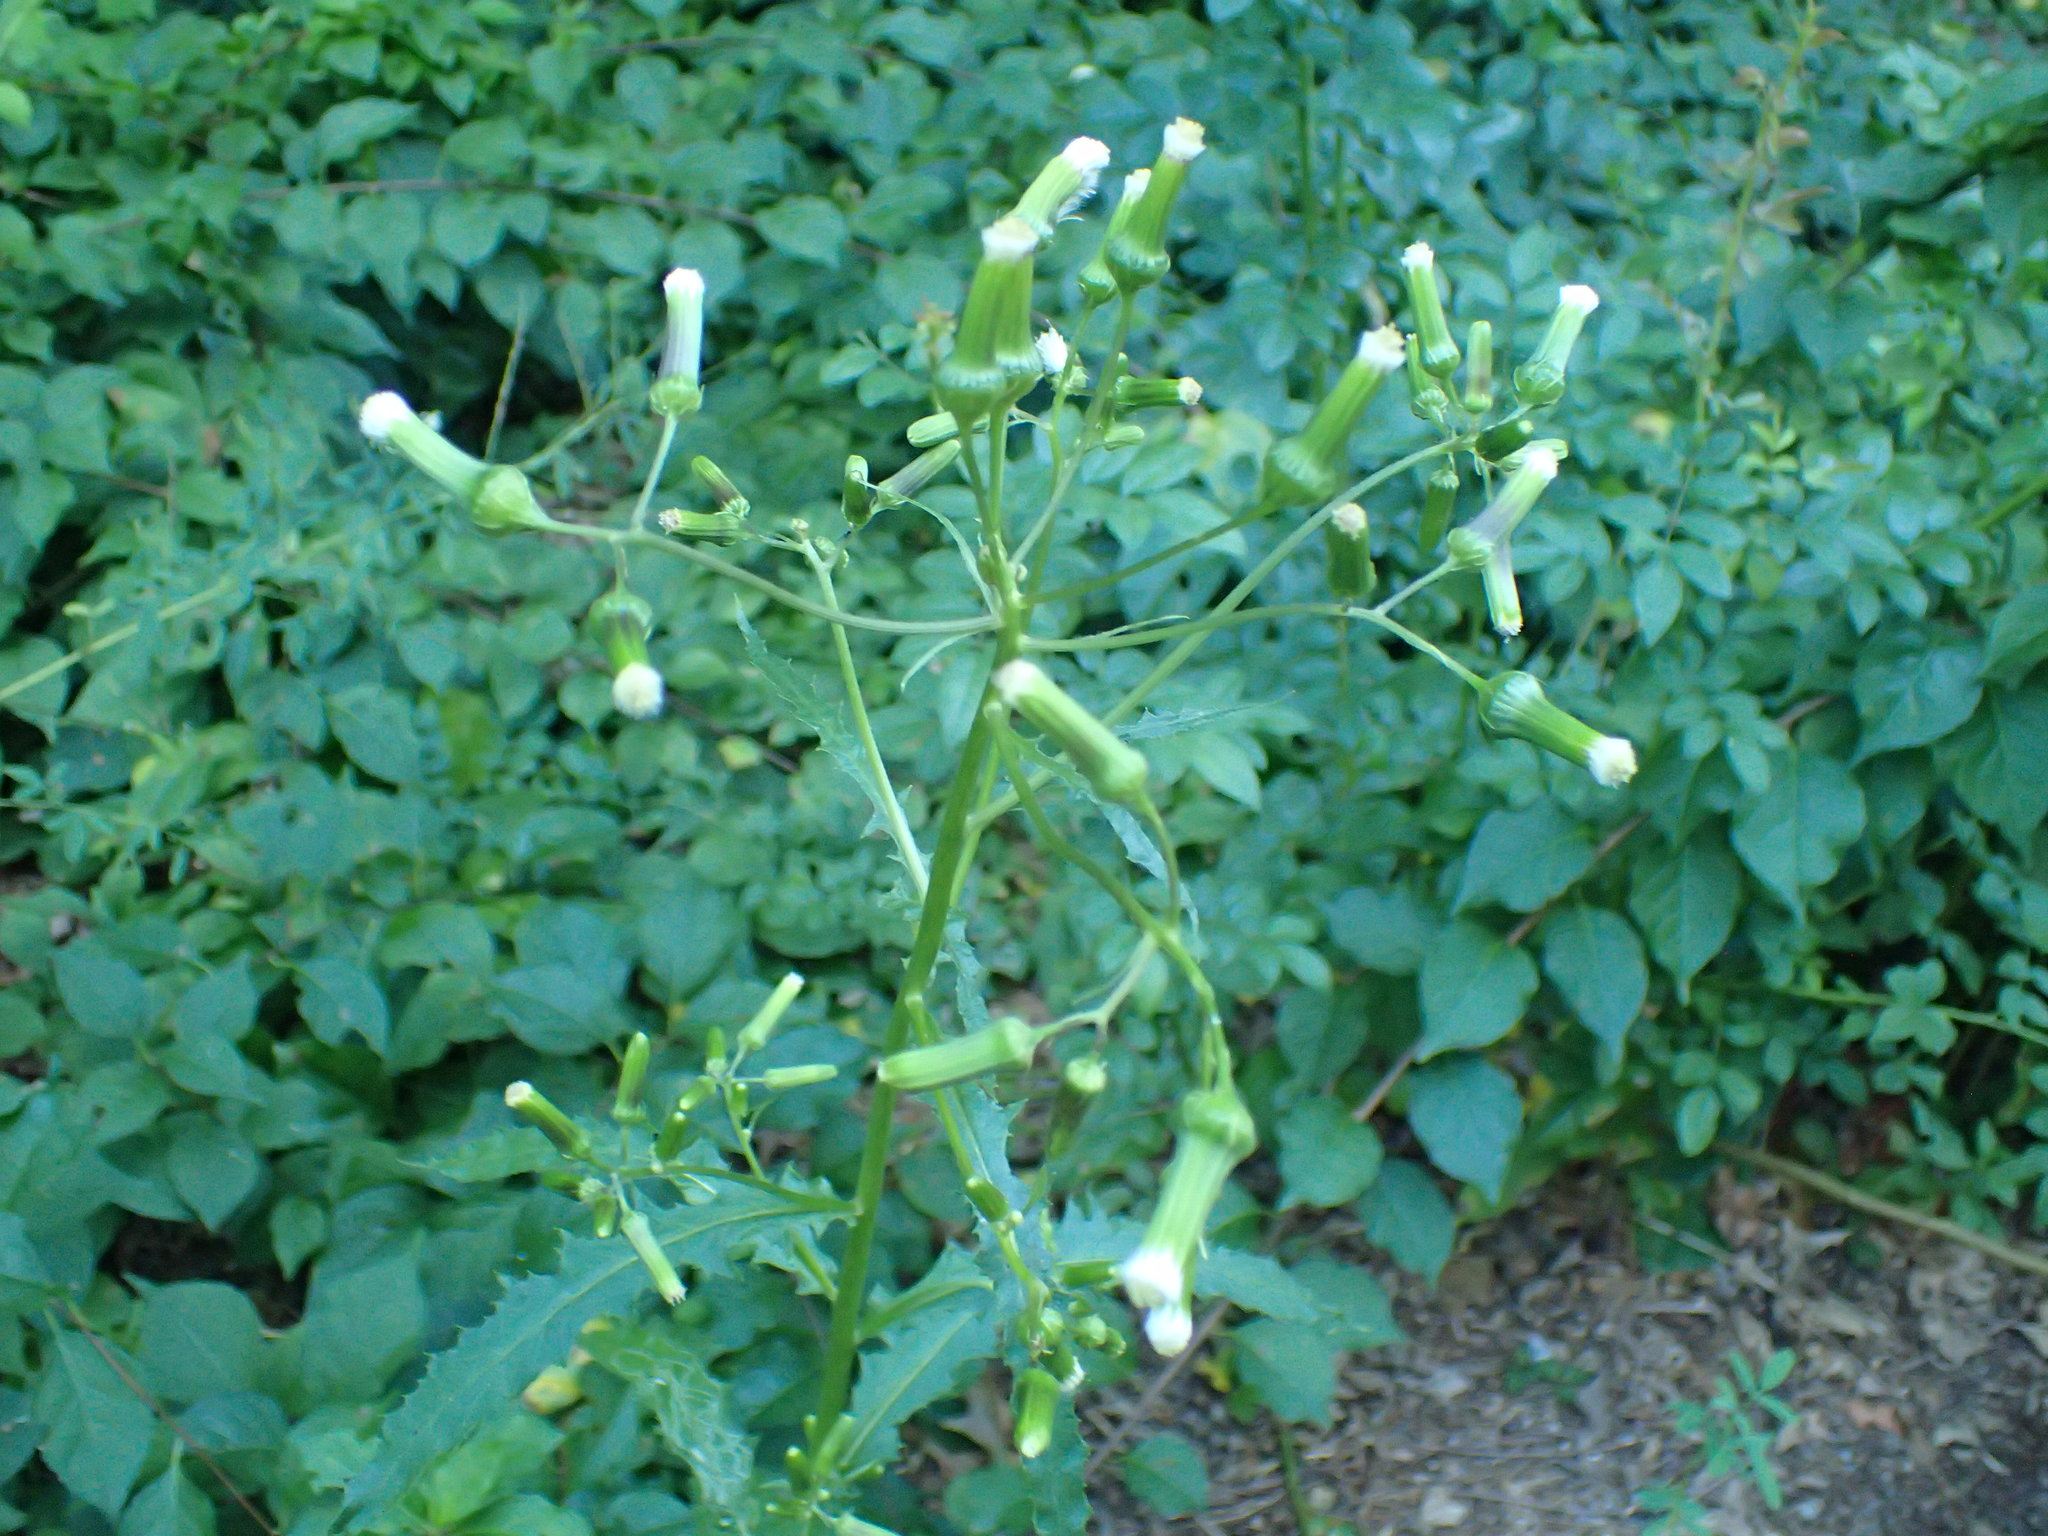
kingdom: Plantae
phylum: Tracheophyta
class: Magnoliopsida
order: Asterales
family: Asteraceae
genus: Erechtites
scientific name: Erechtites hieraciifolius
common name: American burnweed
